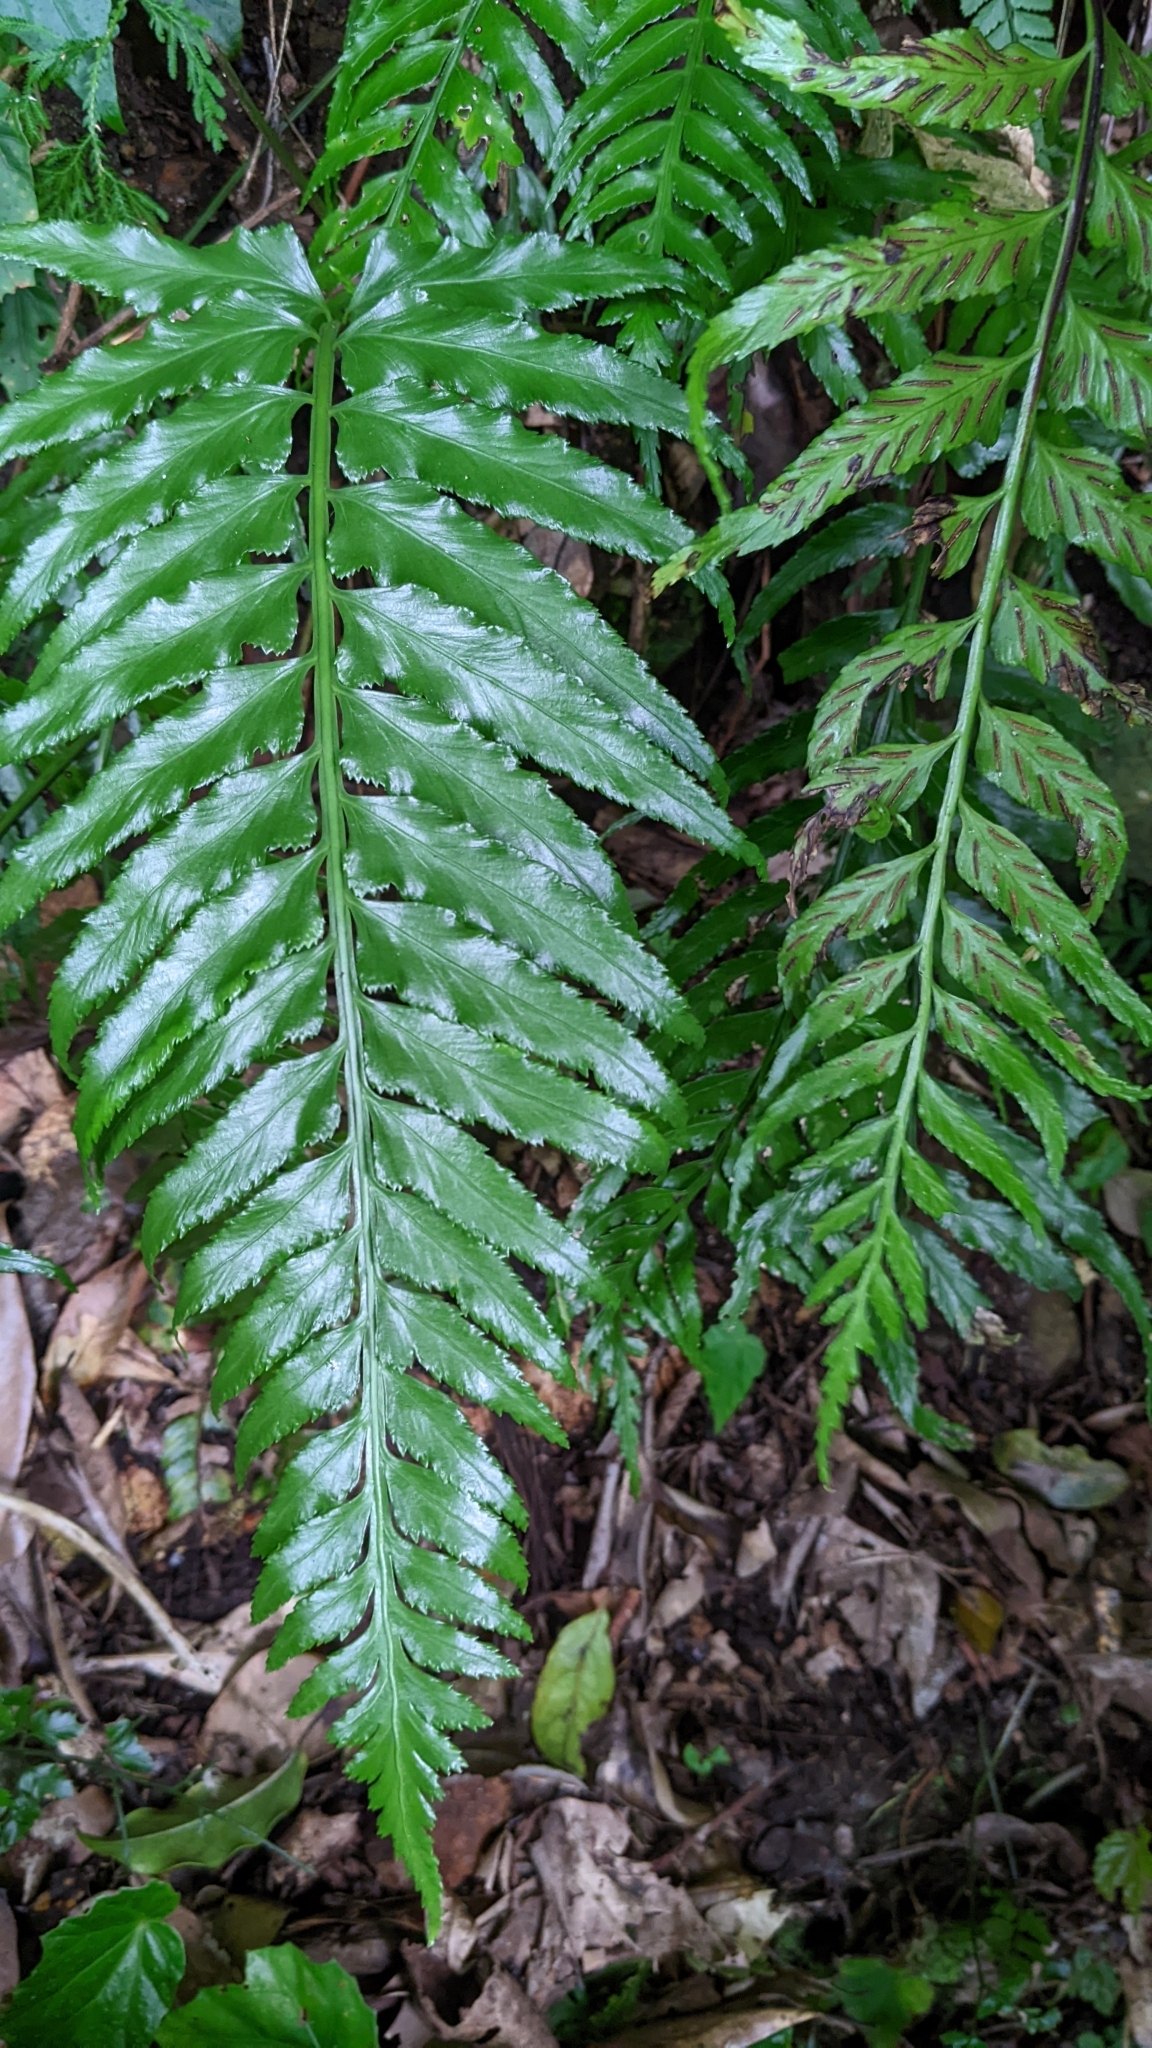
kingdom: Plantae
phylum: Tracheophyta
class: Polypodiopsida
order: Polypodiales
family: Aspleniaceae
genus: Asplenium
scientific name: Asplenium wrightii
